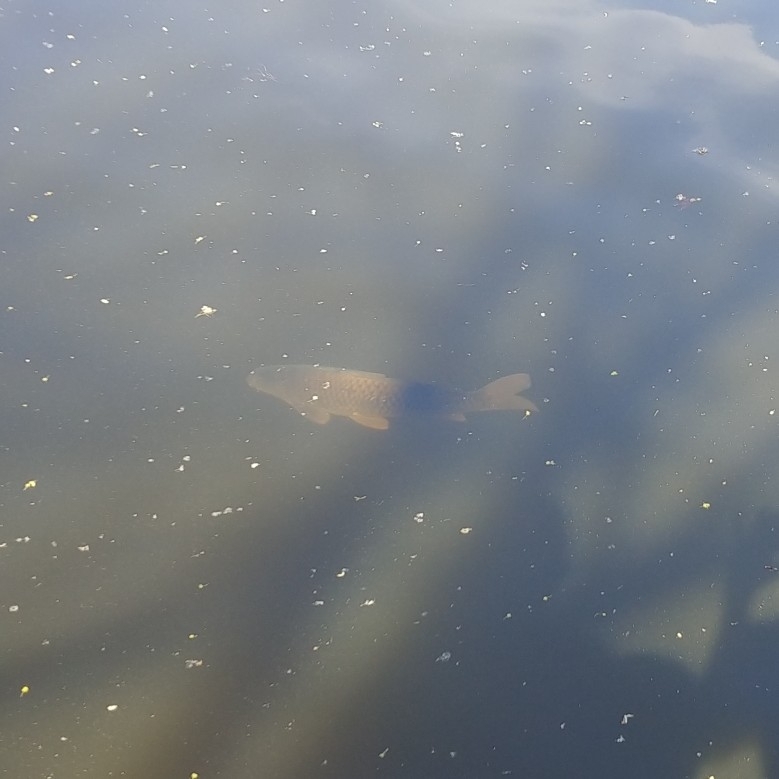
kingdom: Animalia
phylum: Chordata
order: Cypriniformes
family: Cyprinidae
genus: Cyprinus
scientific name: Cyprinus carpio
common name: Common carp
